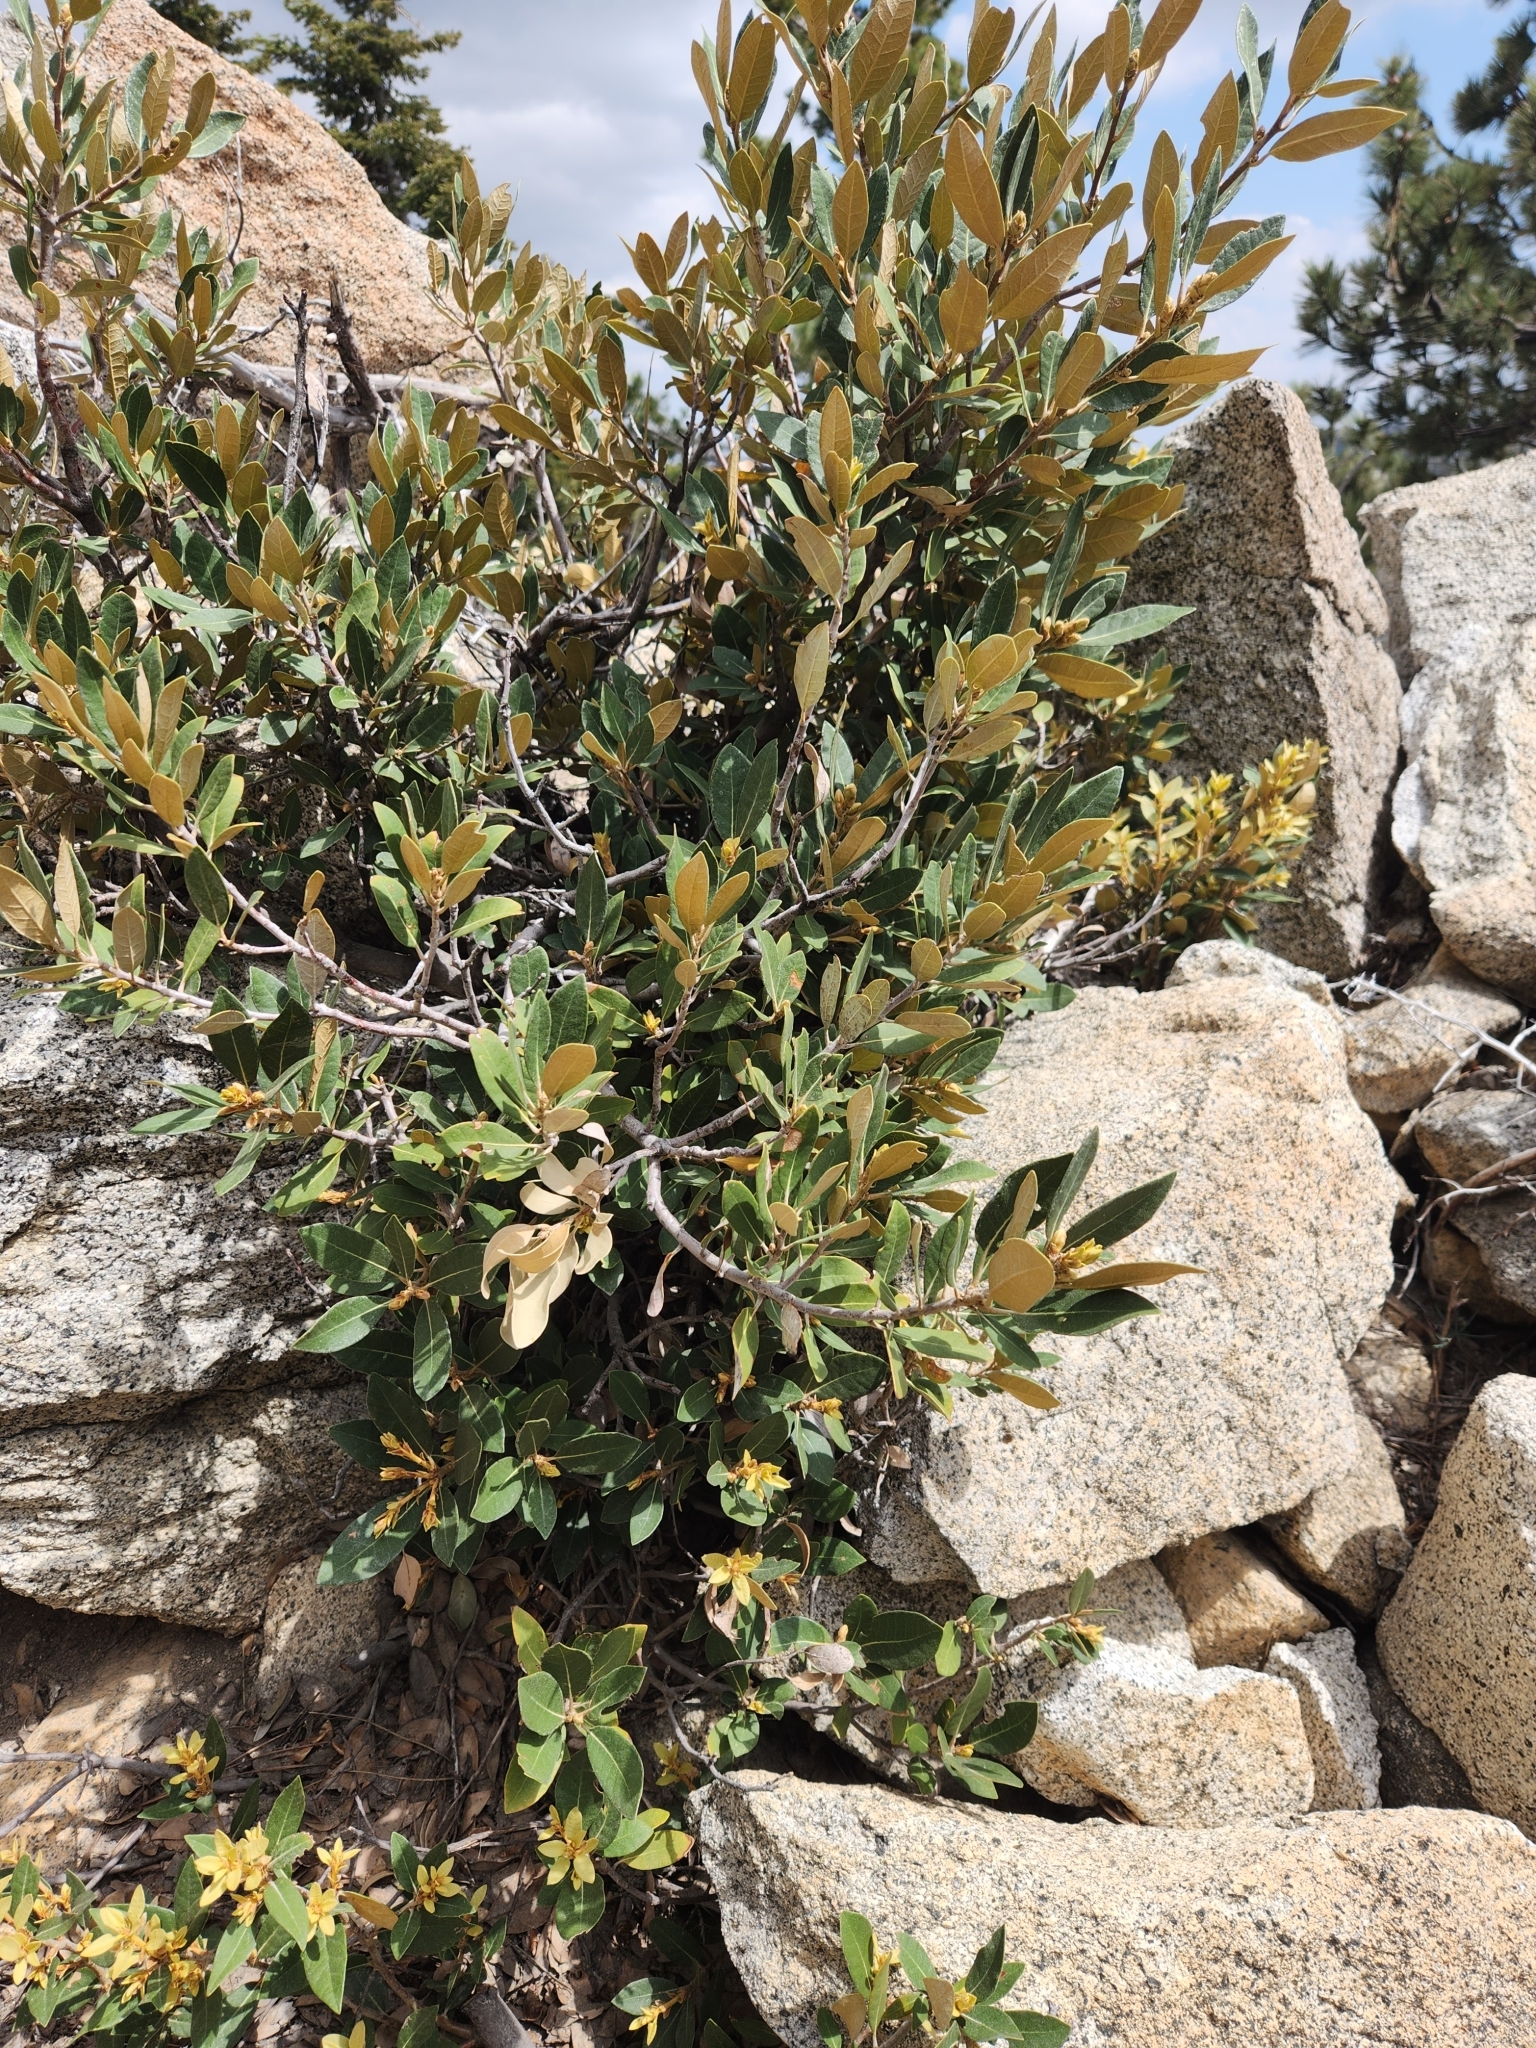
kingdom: Plantae
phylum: Tracheophyta
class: Magnoliopsida
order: Fagales
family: Fagaceae
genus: Chrysolepis
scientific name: Chrysolepis sempervirens
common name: Bush chinquapin
